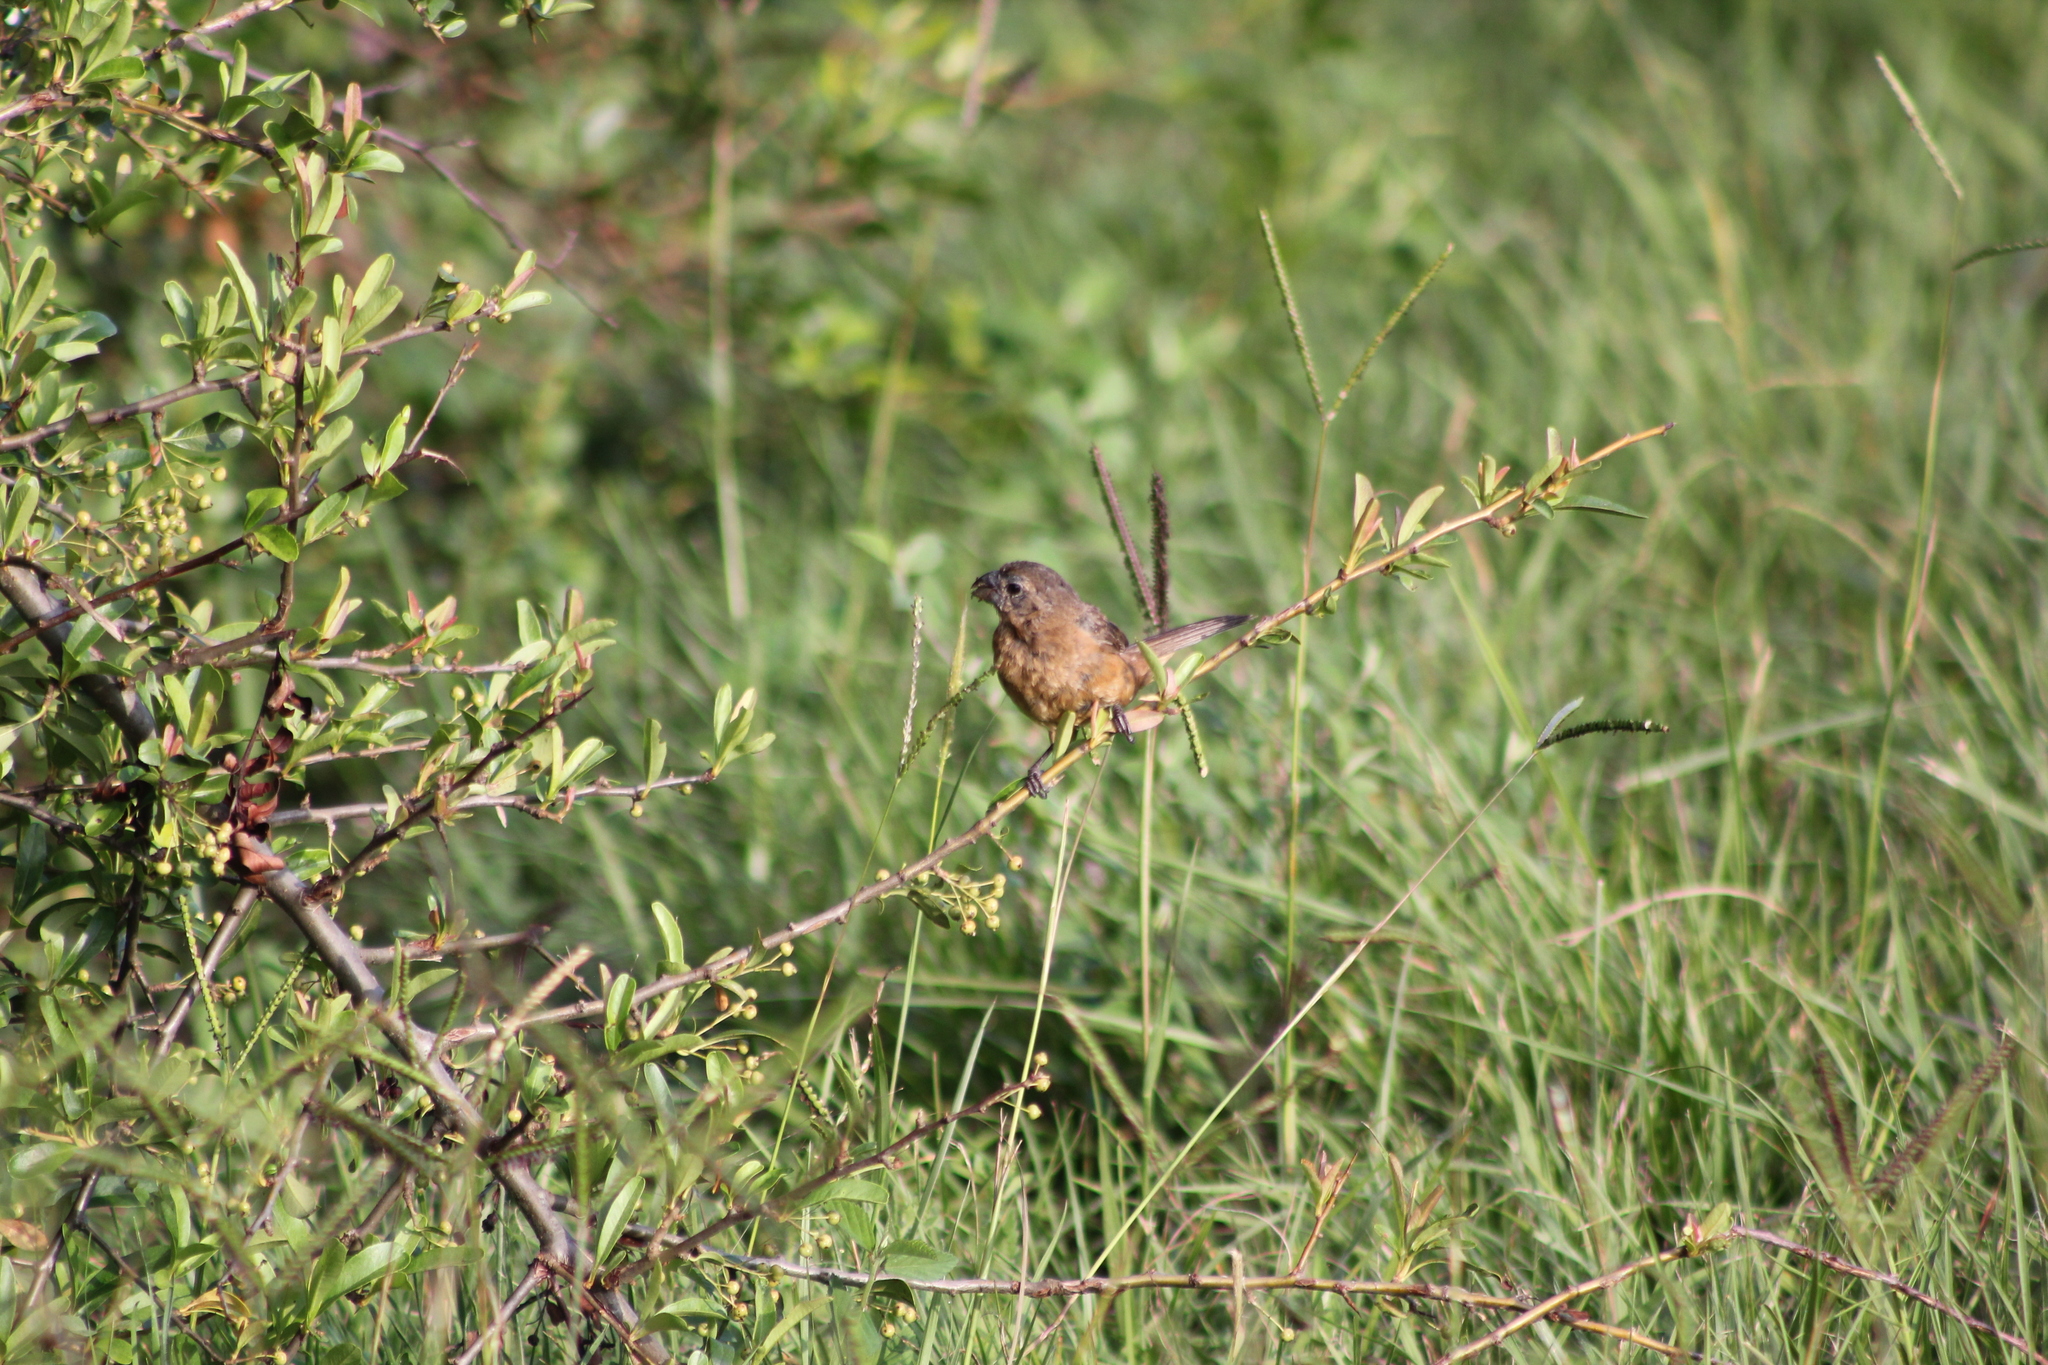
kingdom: Animalia
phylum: Chordata
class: Aves
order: Passeriformes
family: Cardinalidae
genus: Cyanoloxia
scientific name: Cyanoloxia glaucocaerulea
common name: Glaucous-blue grosbeak
